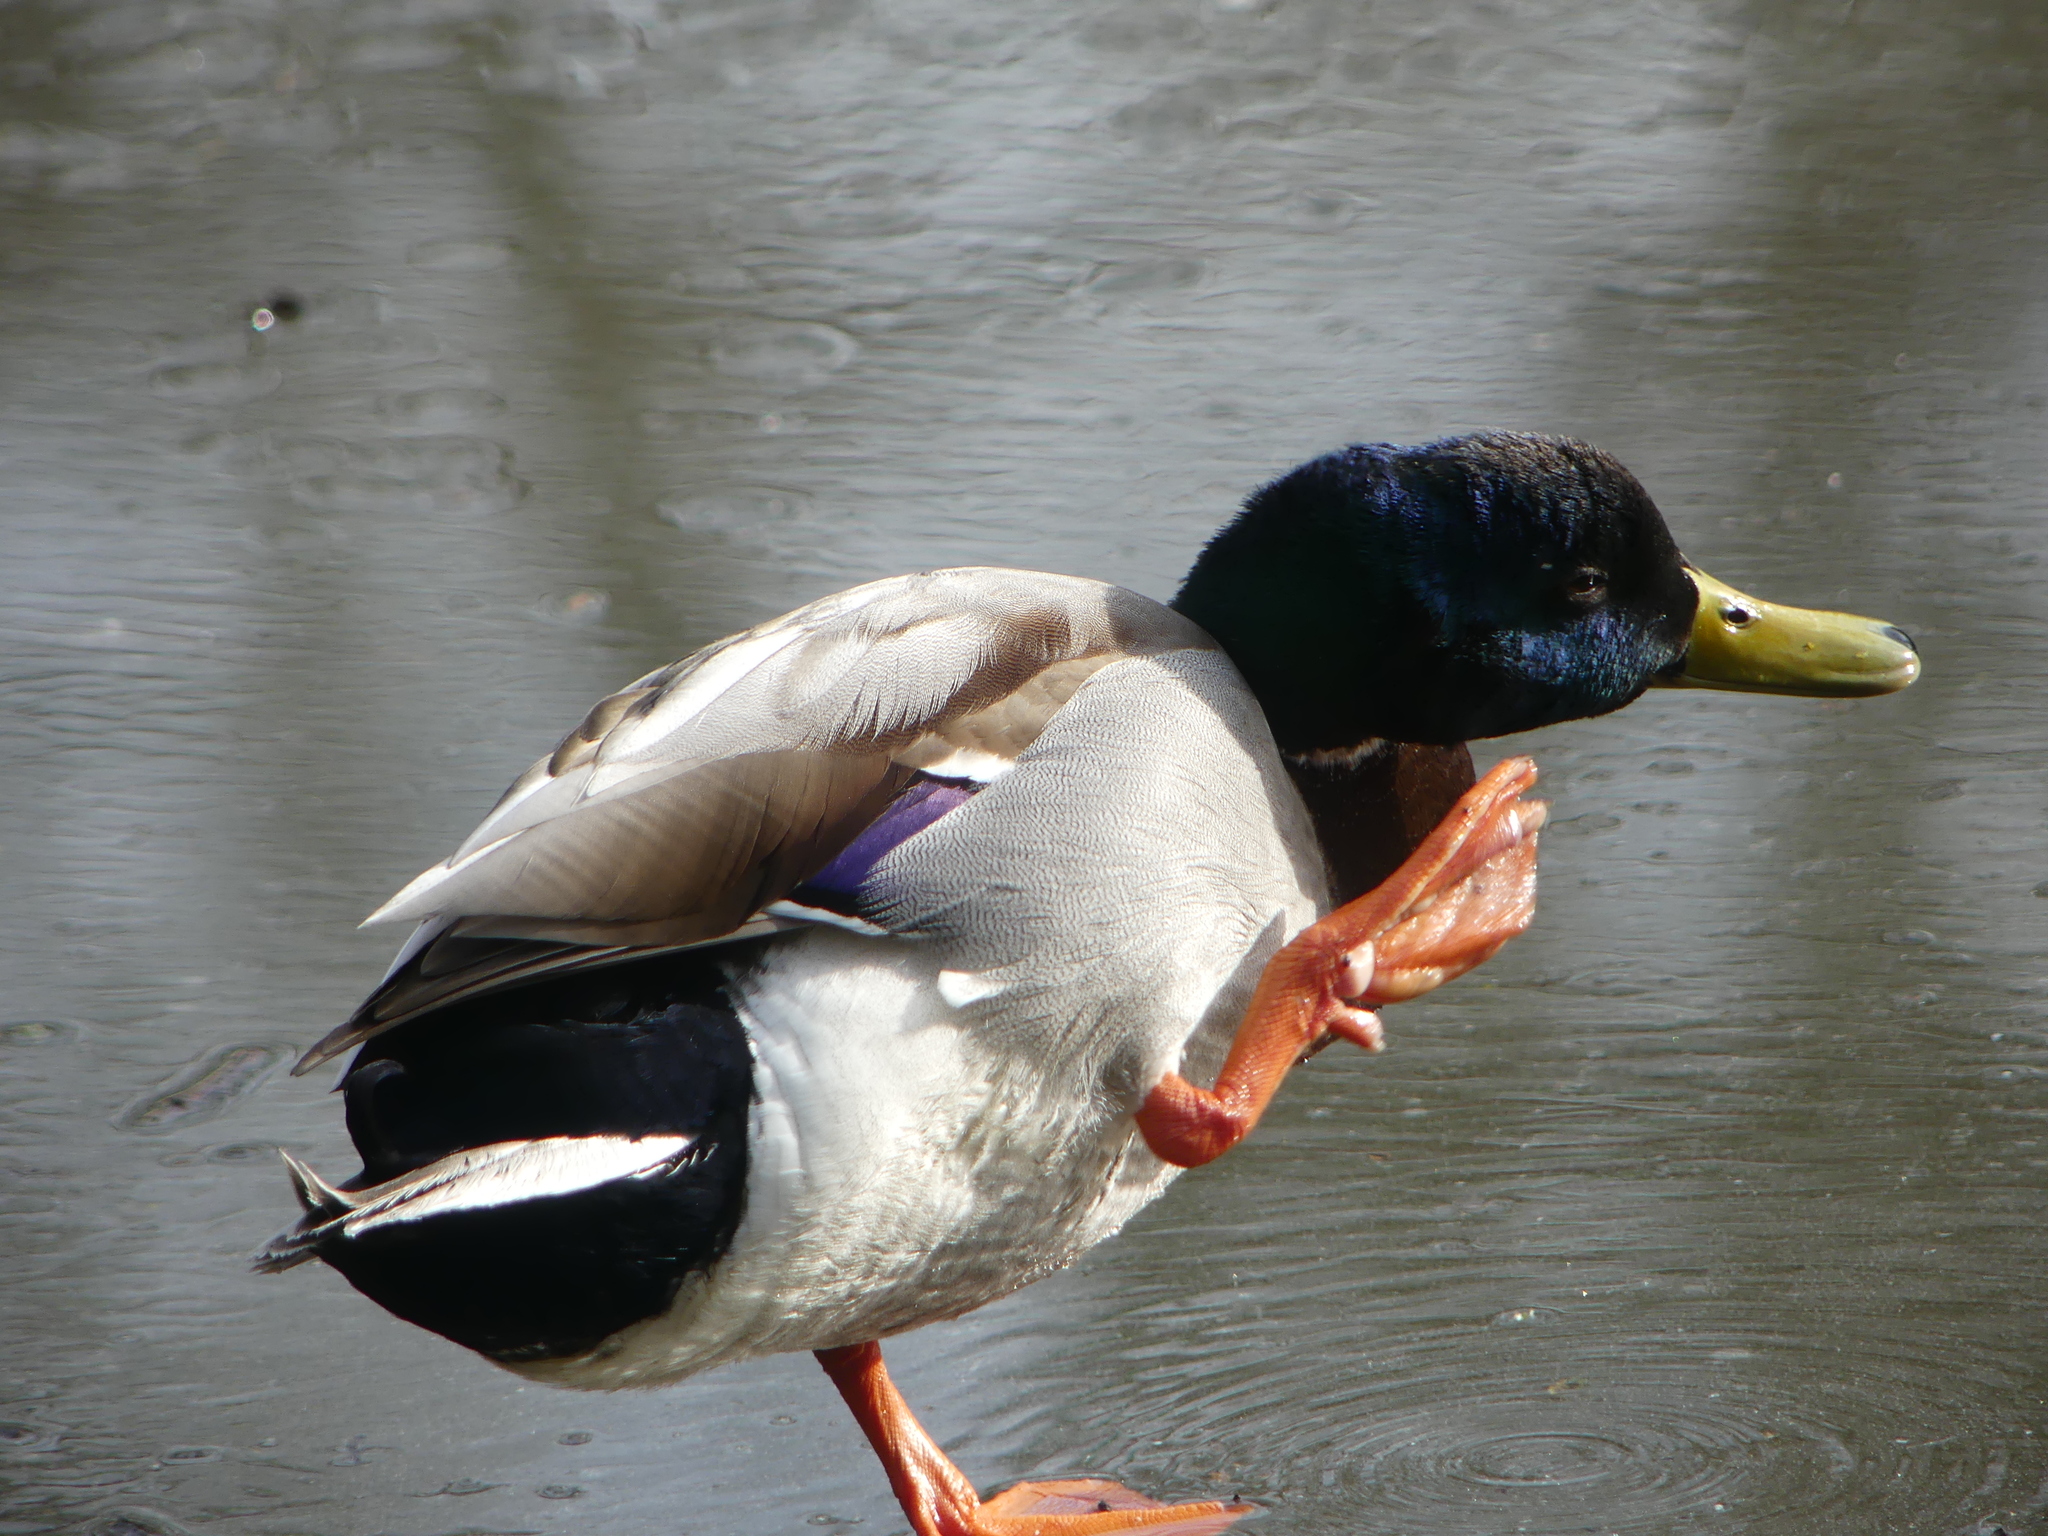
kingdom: Animalia
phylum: Chordata
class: Aves
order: Anseriformes
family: Anatidae
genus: Anas
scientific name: Anas platyrhynchos
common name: Mallard
